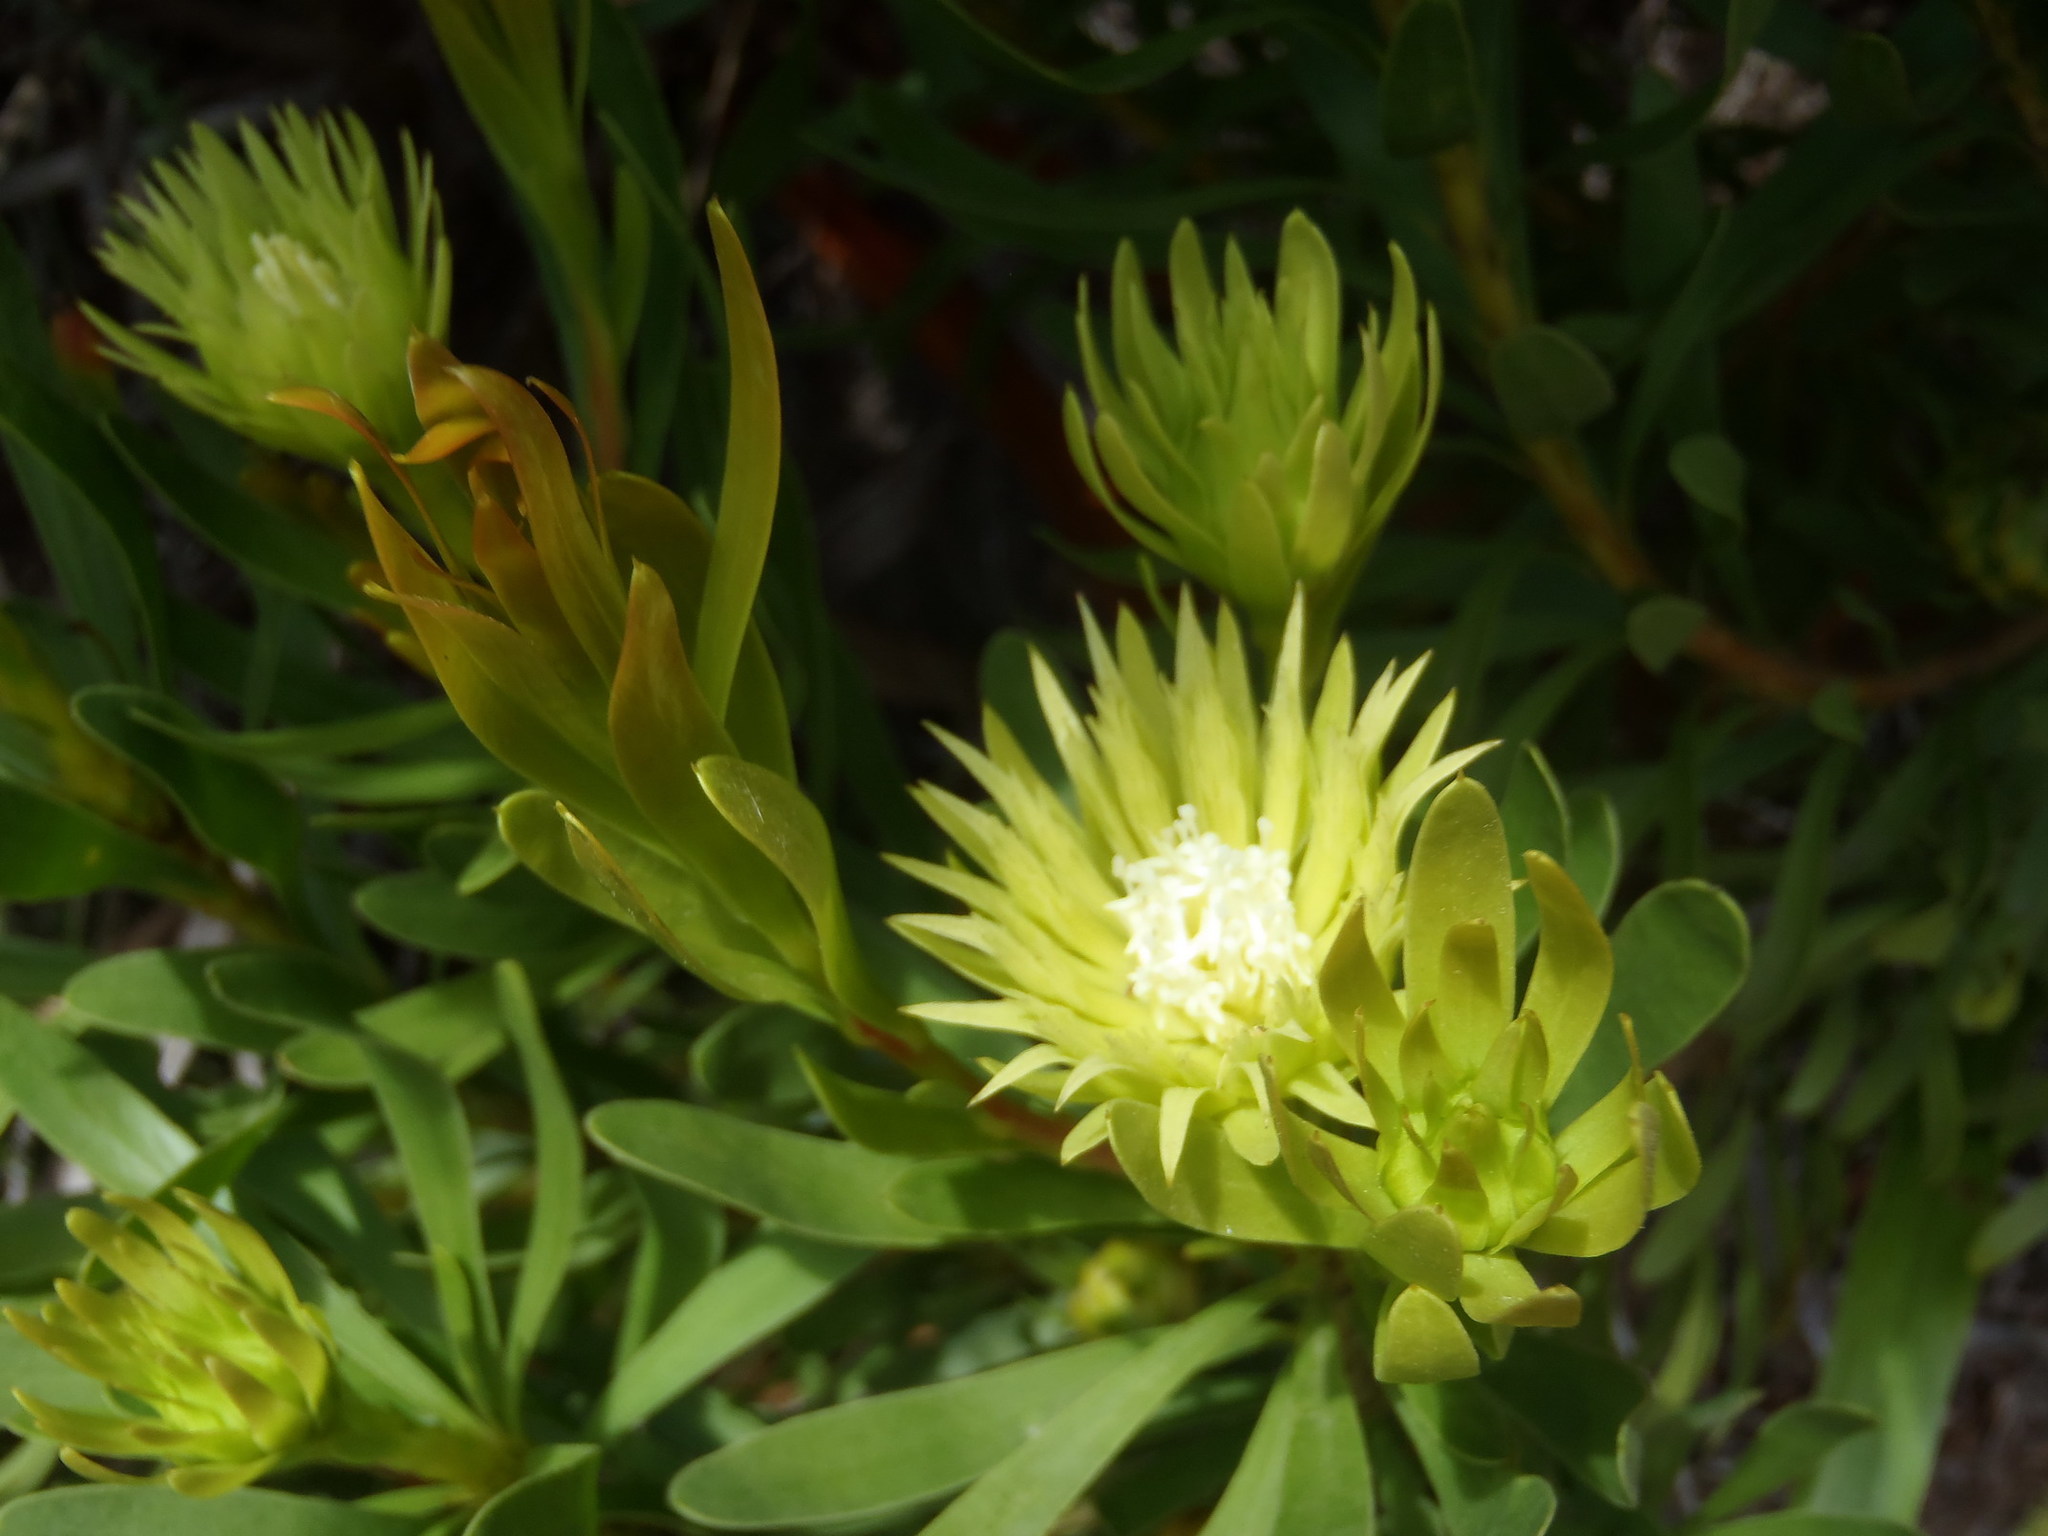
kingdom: Plantae
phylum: Tracheophyta
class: Magnoliopsida
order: Proteales
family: Proteaceae
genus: Aulax
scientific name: Aulax umbellata
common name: Broad-leaf featherbush
